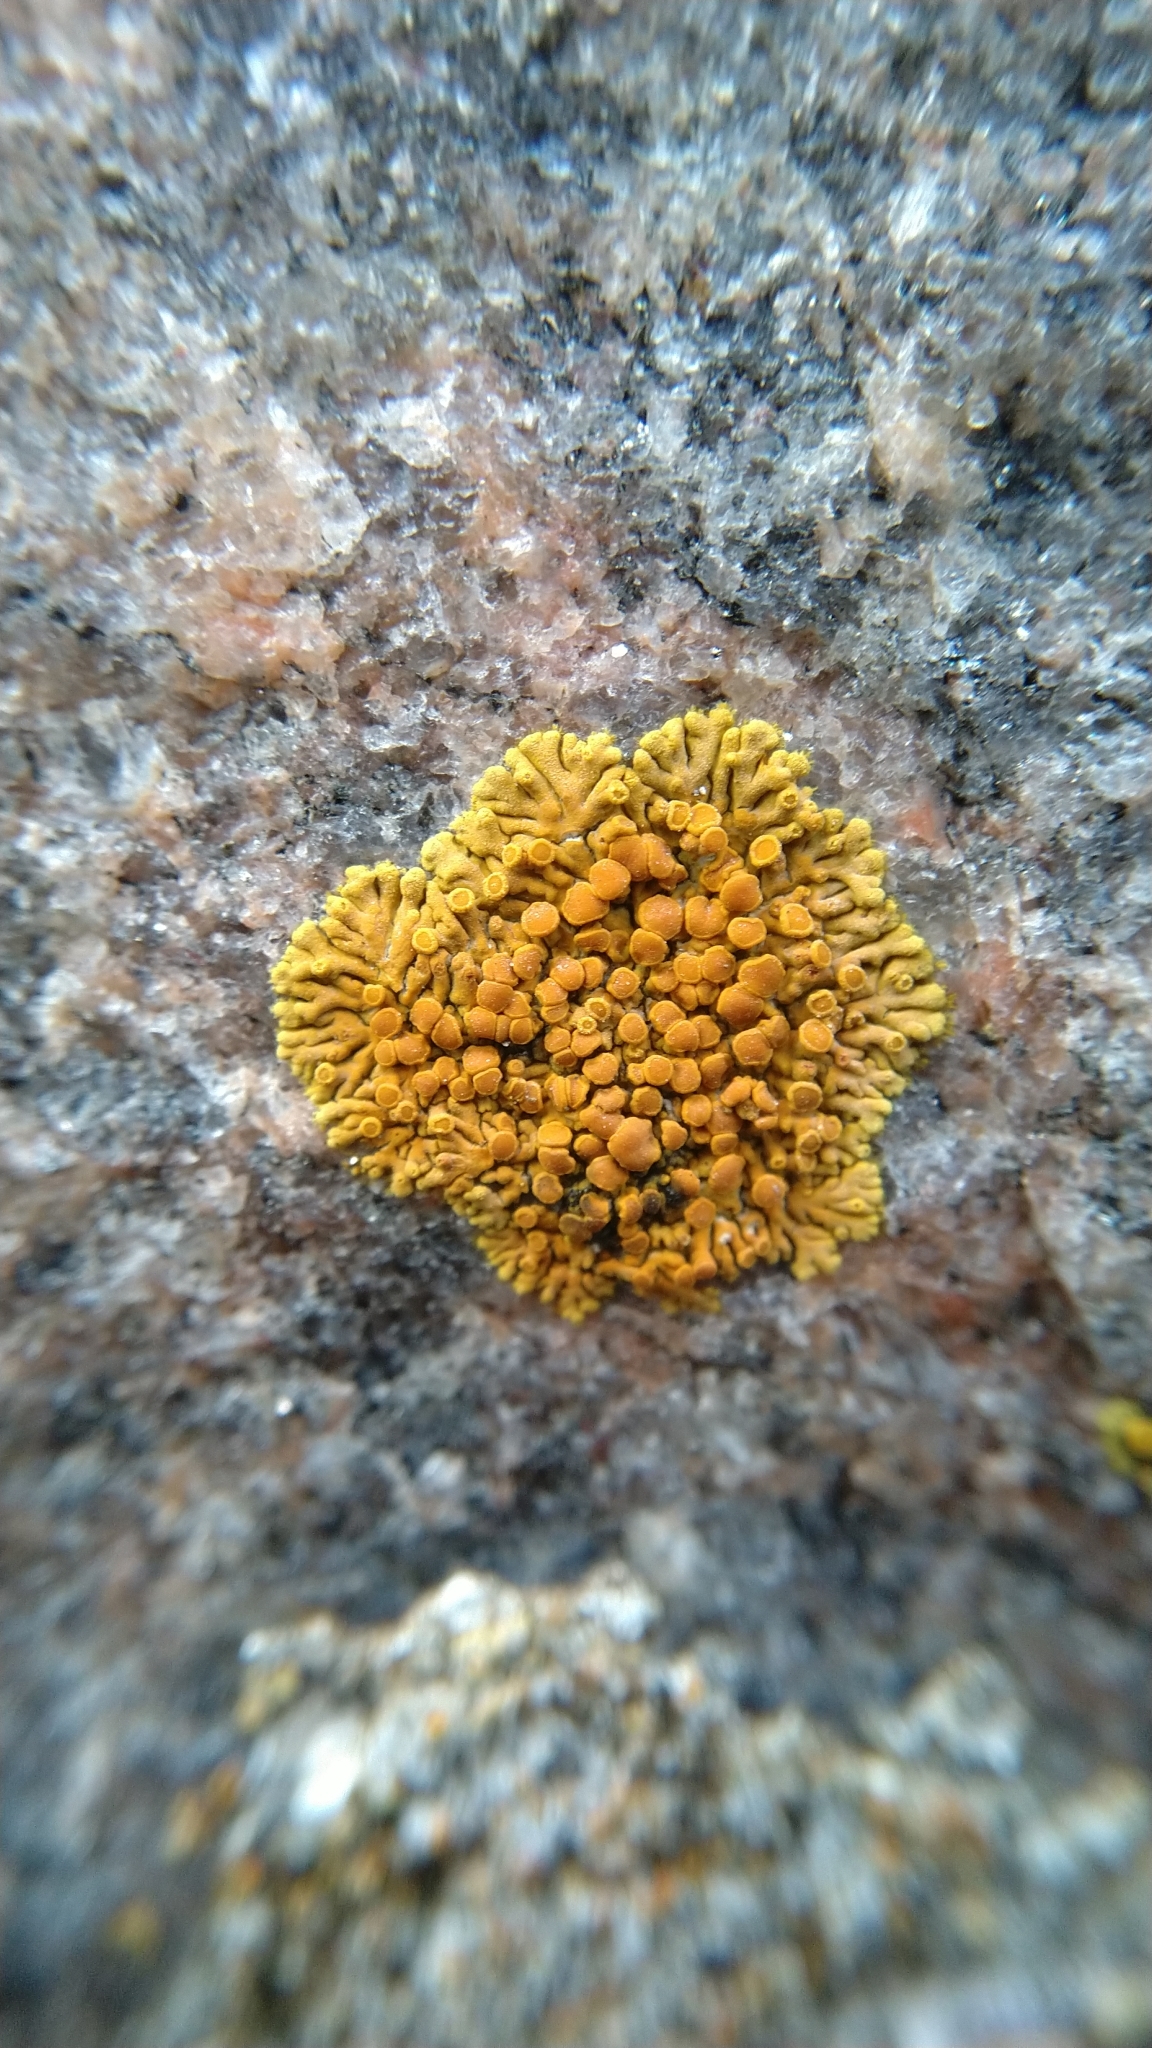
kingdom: Fungi
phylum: Ascomycota
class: Lecanoromycetes
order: Teloschistales
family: Teloschistaceae
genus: Calogaya
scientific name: Calogaya pusilla
